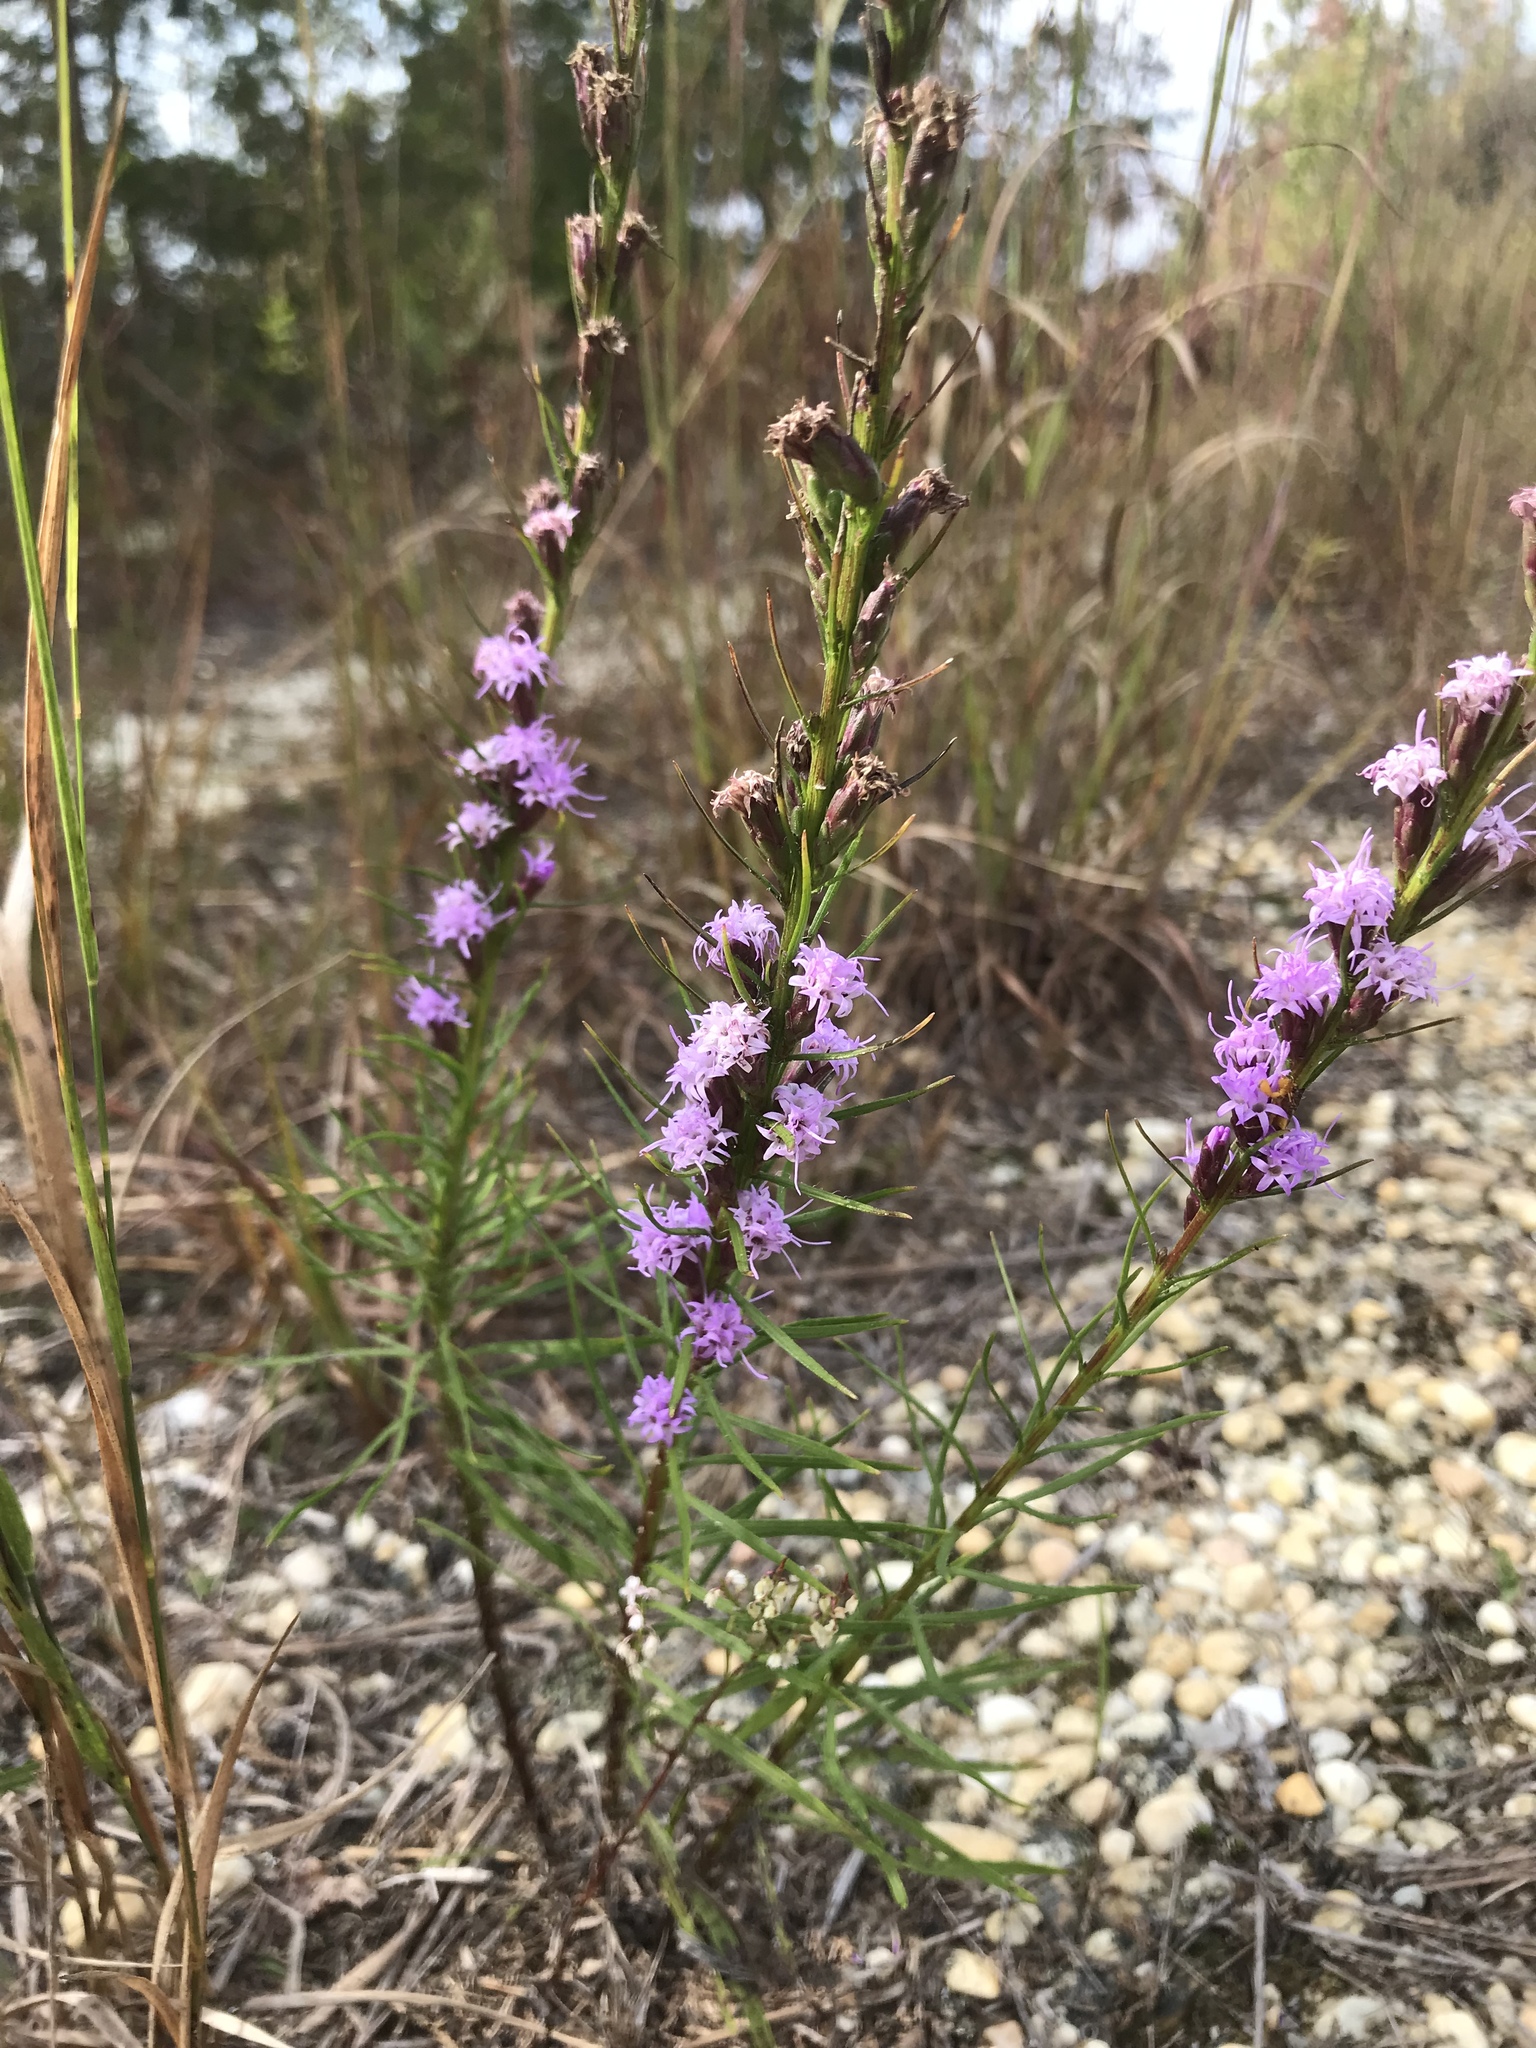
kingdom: Plantae
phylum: Tracheophyta
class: Magnoliopsida
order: Asterales
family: Asteraceae
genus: Liatris
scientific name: Liatris pilosa
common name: Grass-leaf gayfeather
